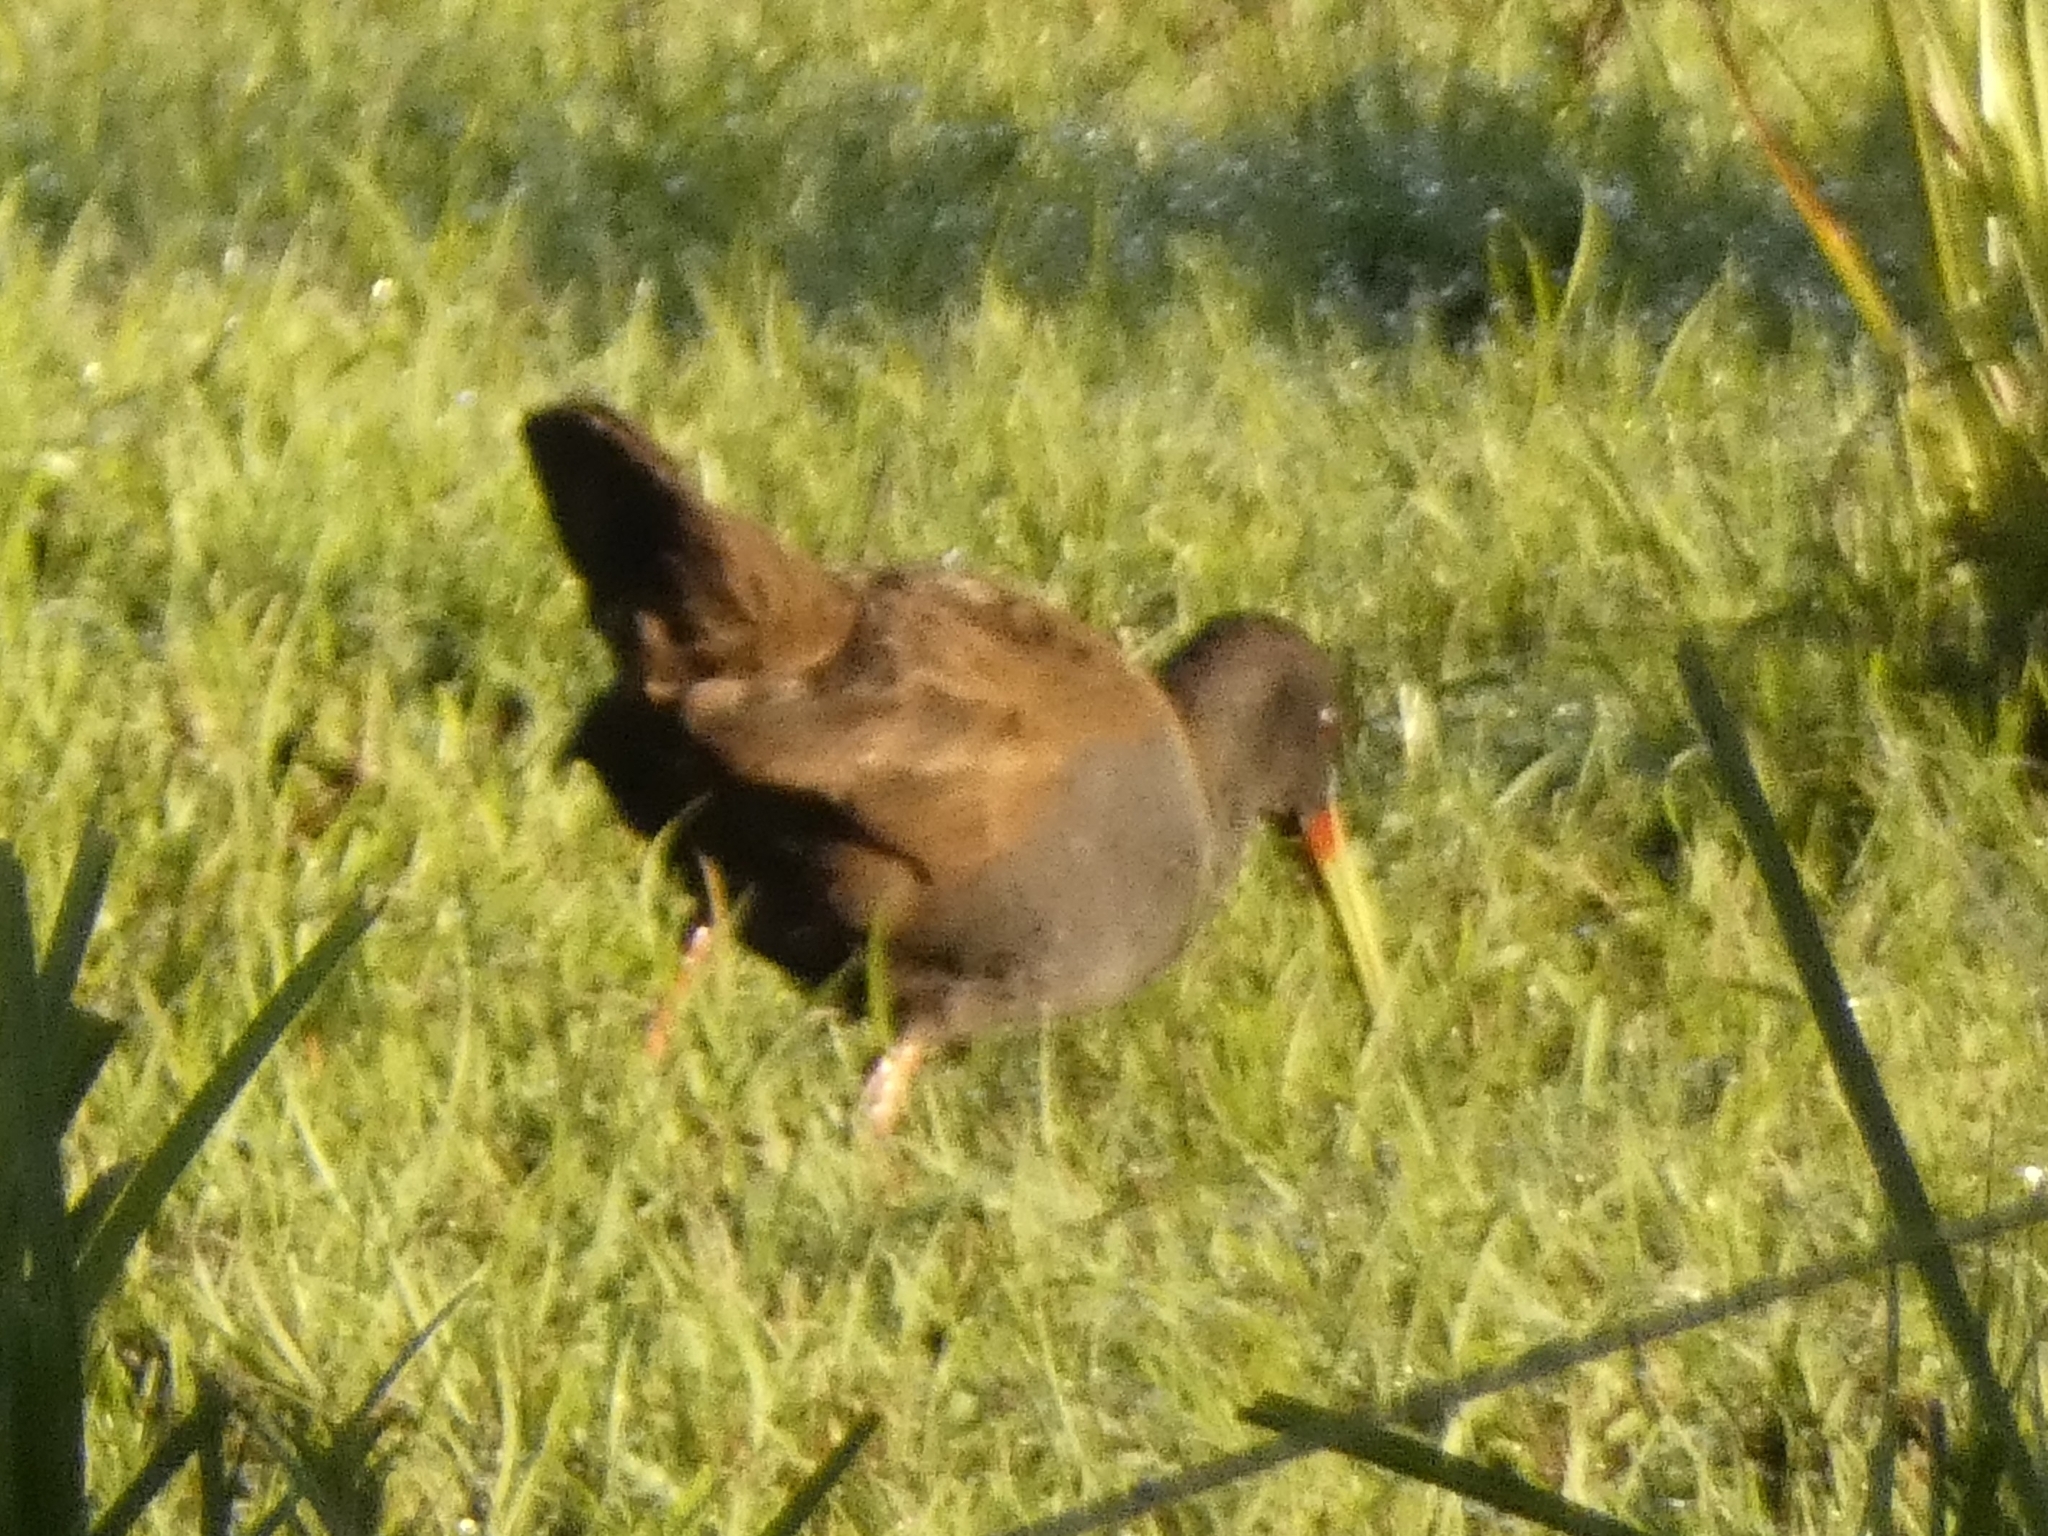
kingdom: Animalia
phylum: Chordata
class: Aves
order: Gruiformes
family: Rallidae
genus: Pardirallus
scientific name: Pardirallus sanguinolentus
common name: Plumbeous rail
